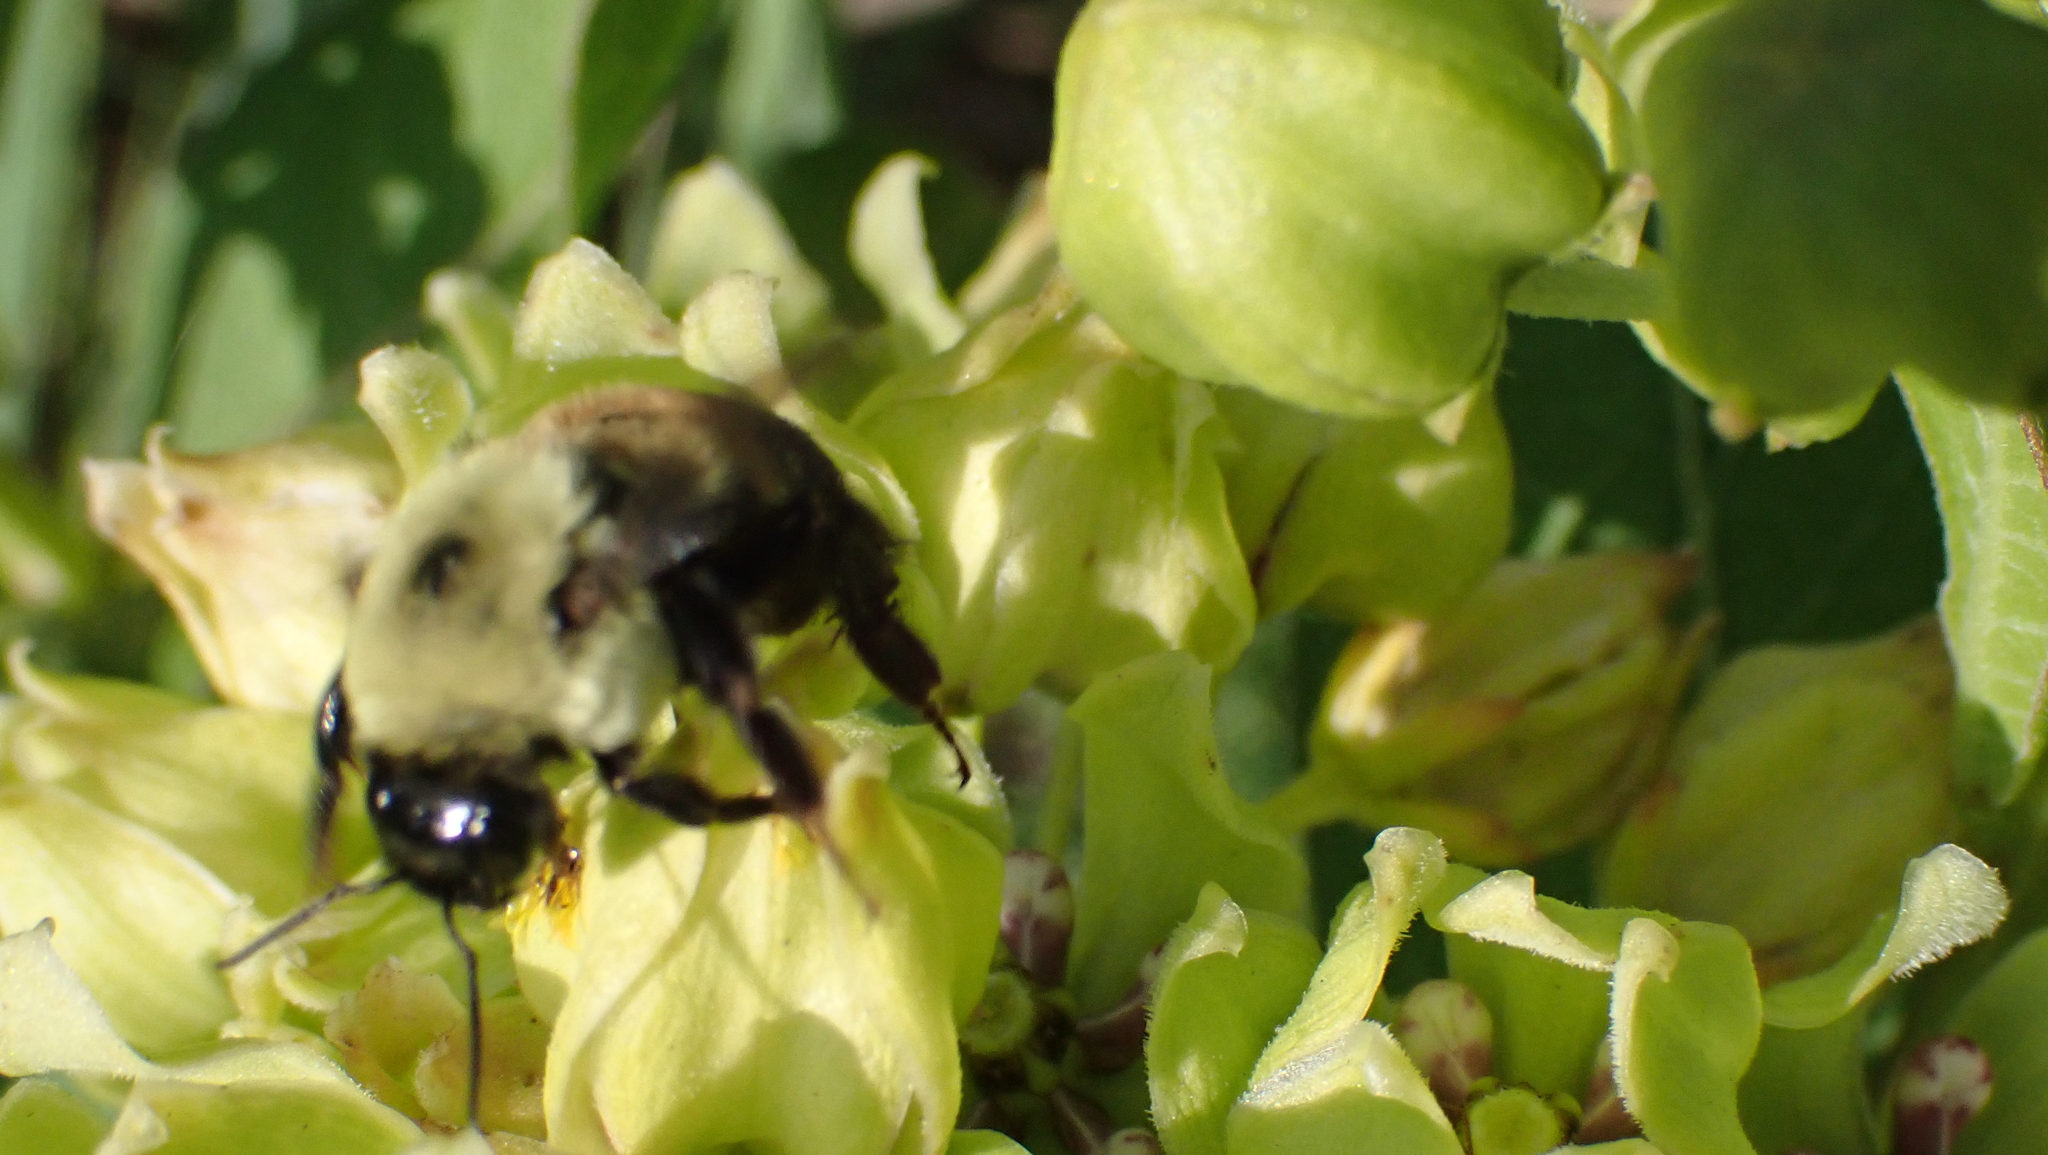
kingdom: Animalia
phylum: Arthropoda
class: Insecta
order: Hymenoptera
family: Apidae
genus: Bombus
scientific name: Bombus griseocollis
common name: Brown-belted bumble bee
